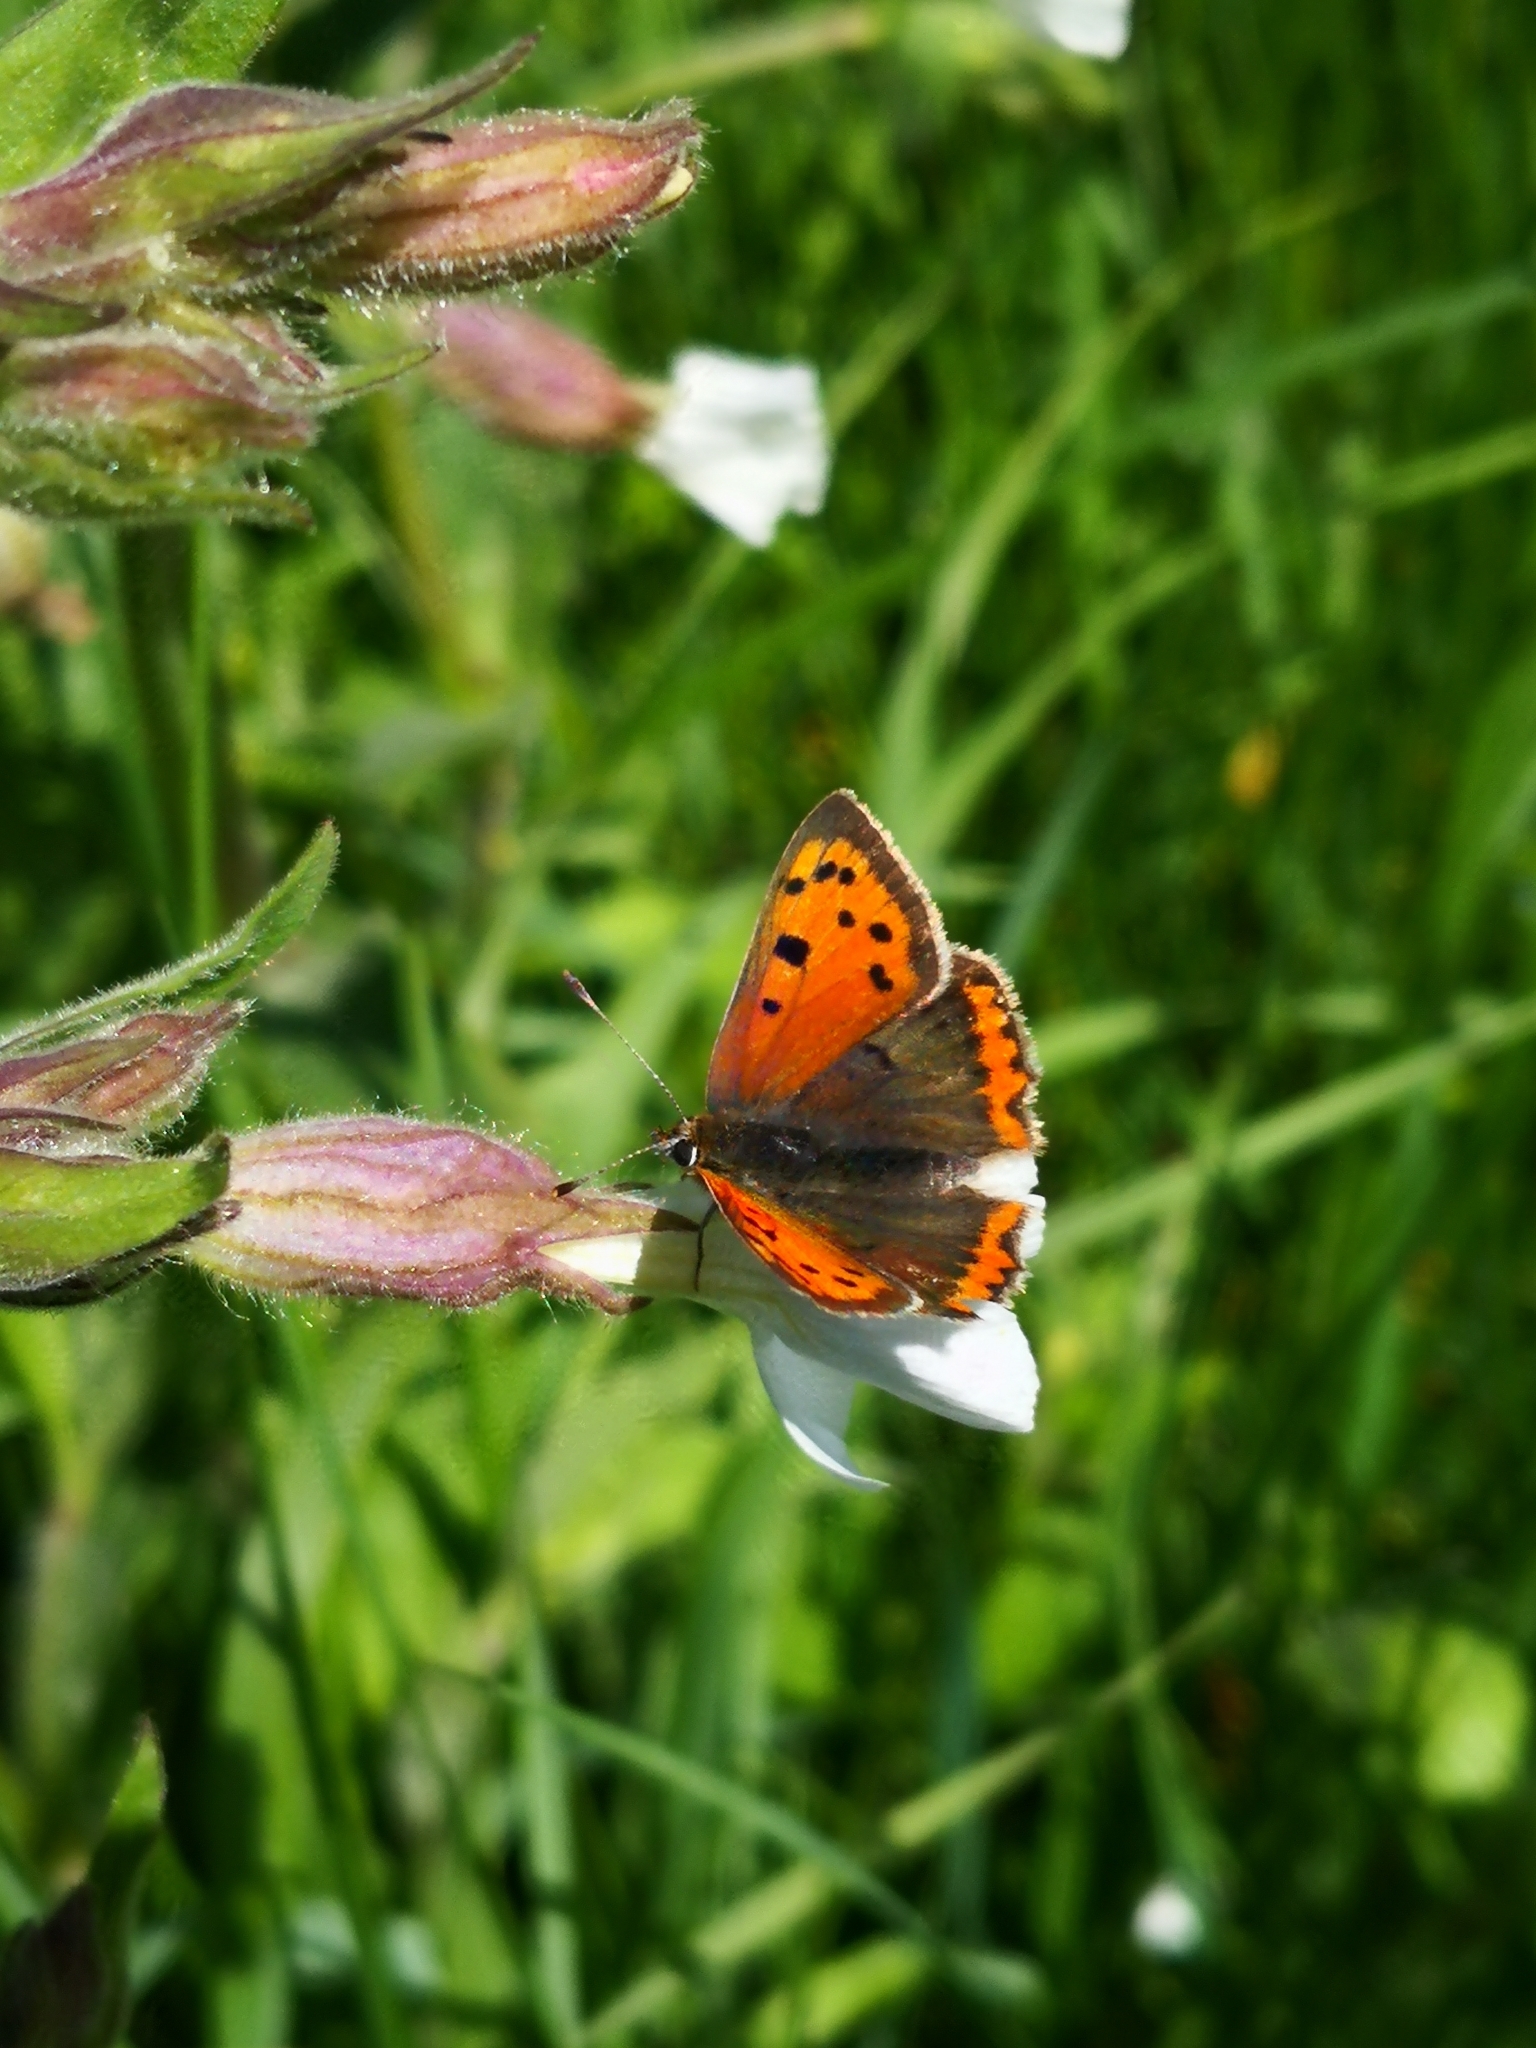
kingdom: Animalia
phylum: Arthropoda
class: Insecta
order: Lepidoptera
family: Lycaenidae
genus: Lycaena
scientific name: Lycaena phlaeas
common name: Small copper
